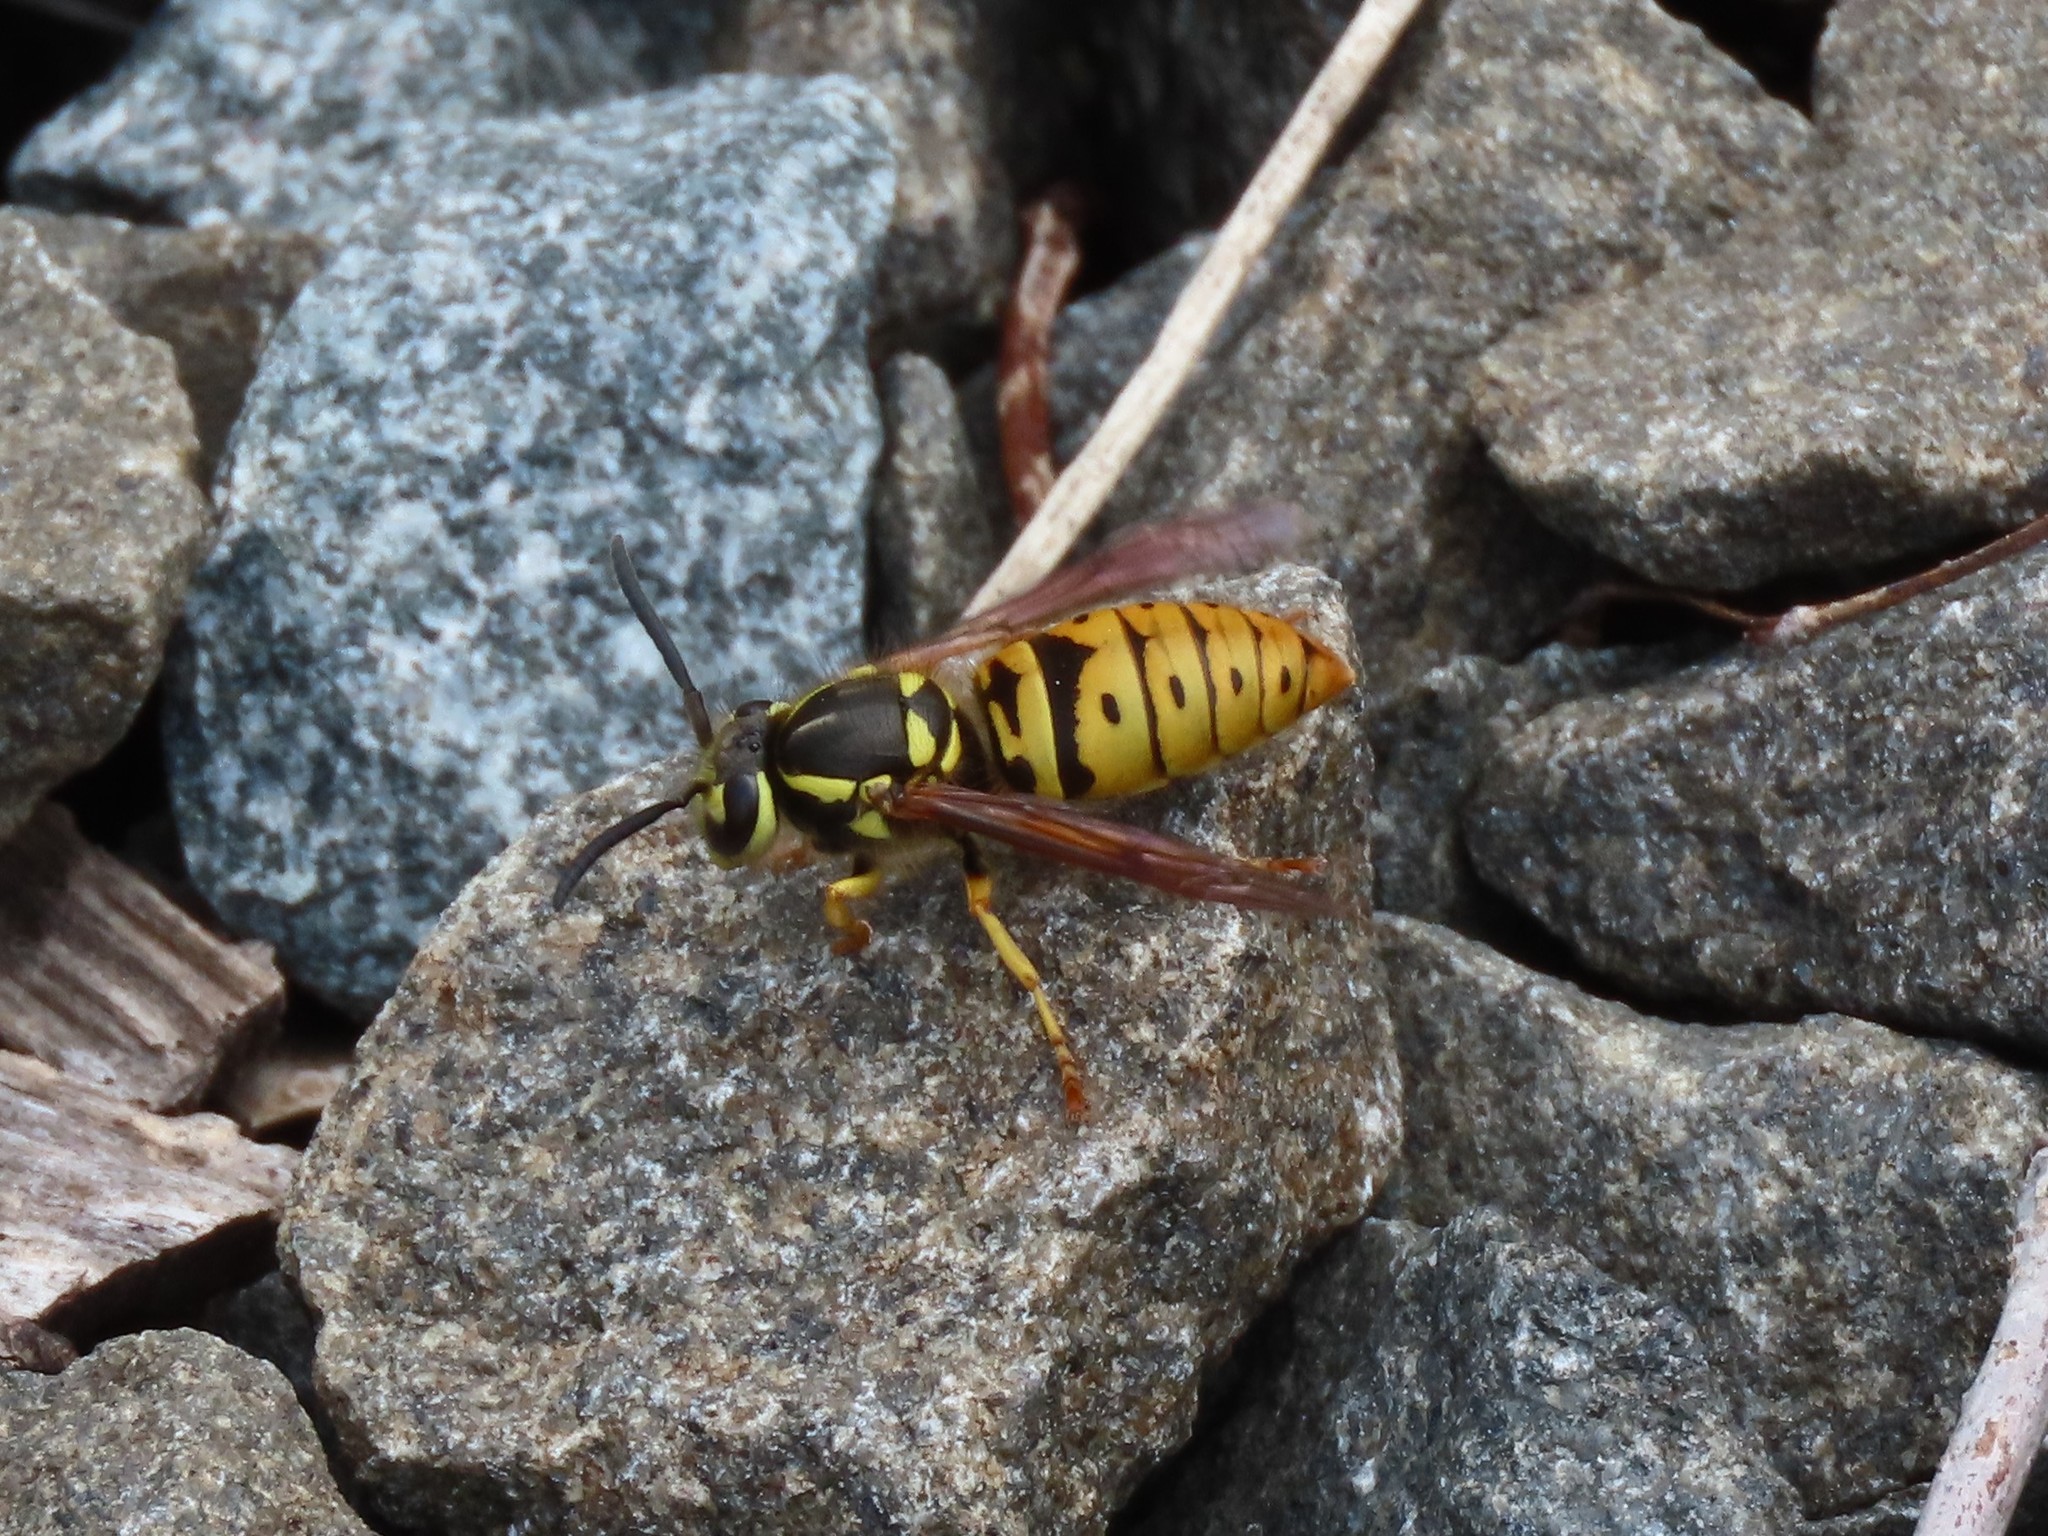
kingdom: Animalia
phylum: Arthropoda
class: Insecta
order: Hymenoptera
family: Vespidae
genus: Vespula
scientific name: Vespula maculifrons
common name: Eastern yellowjacket
